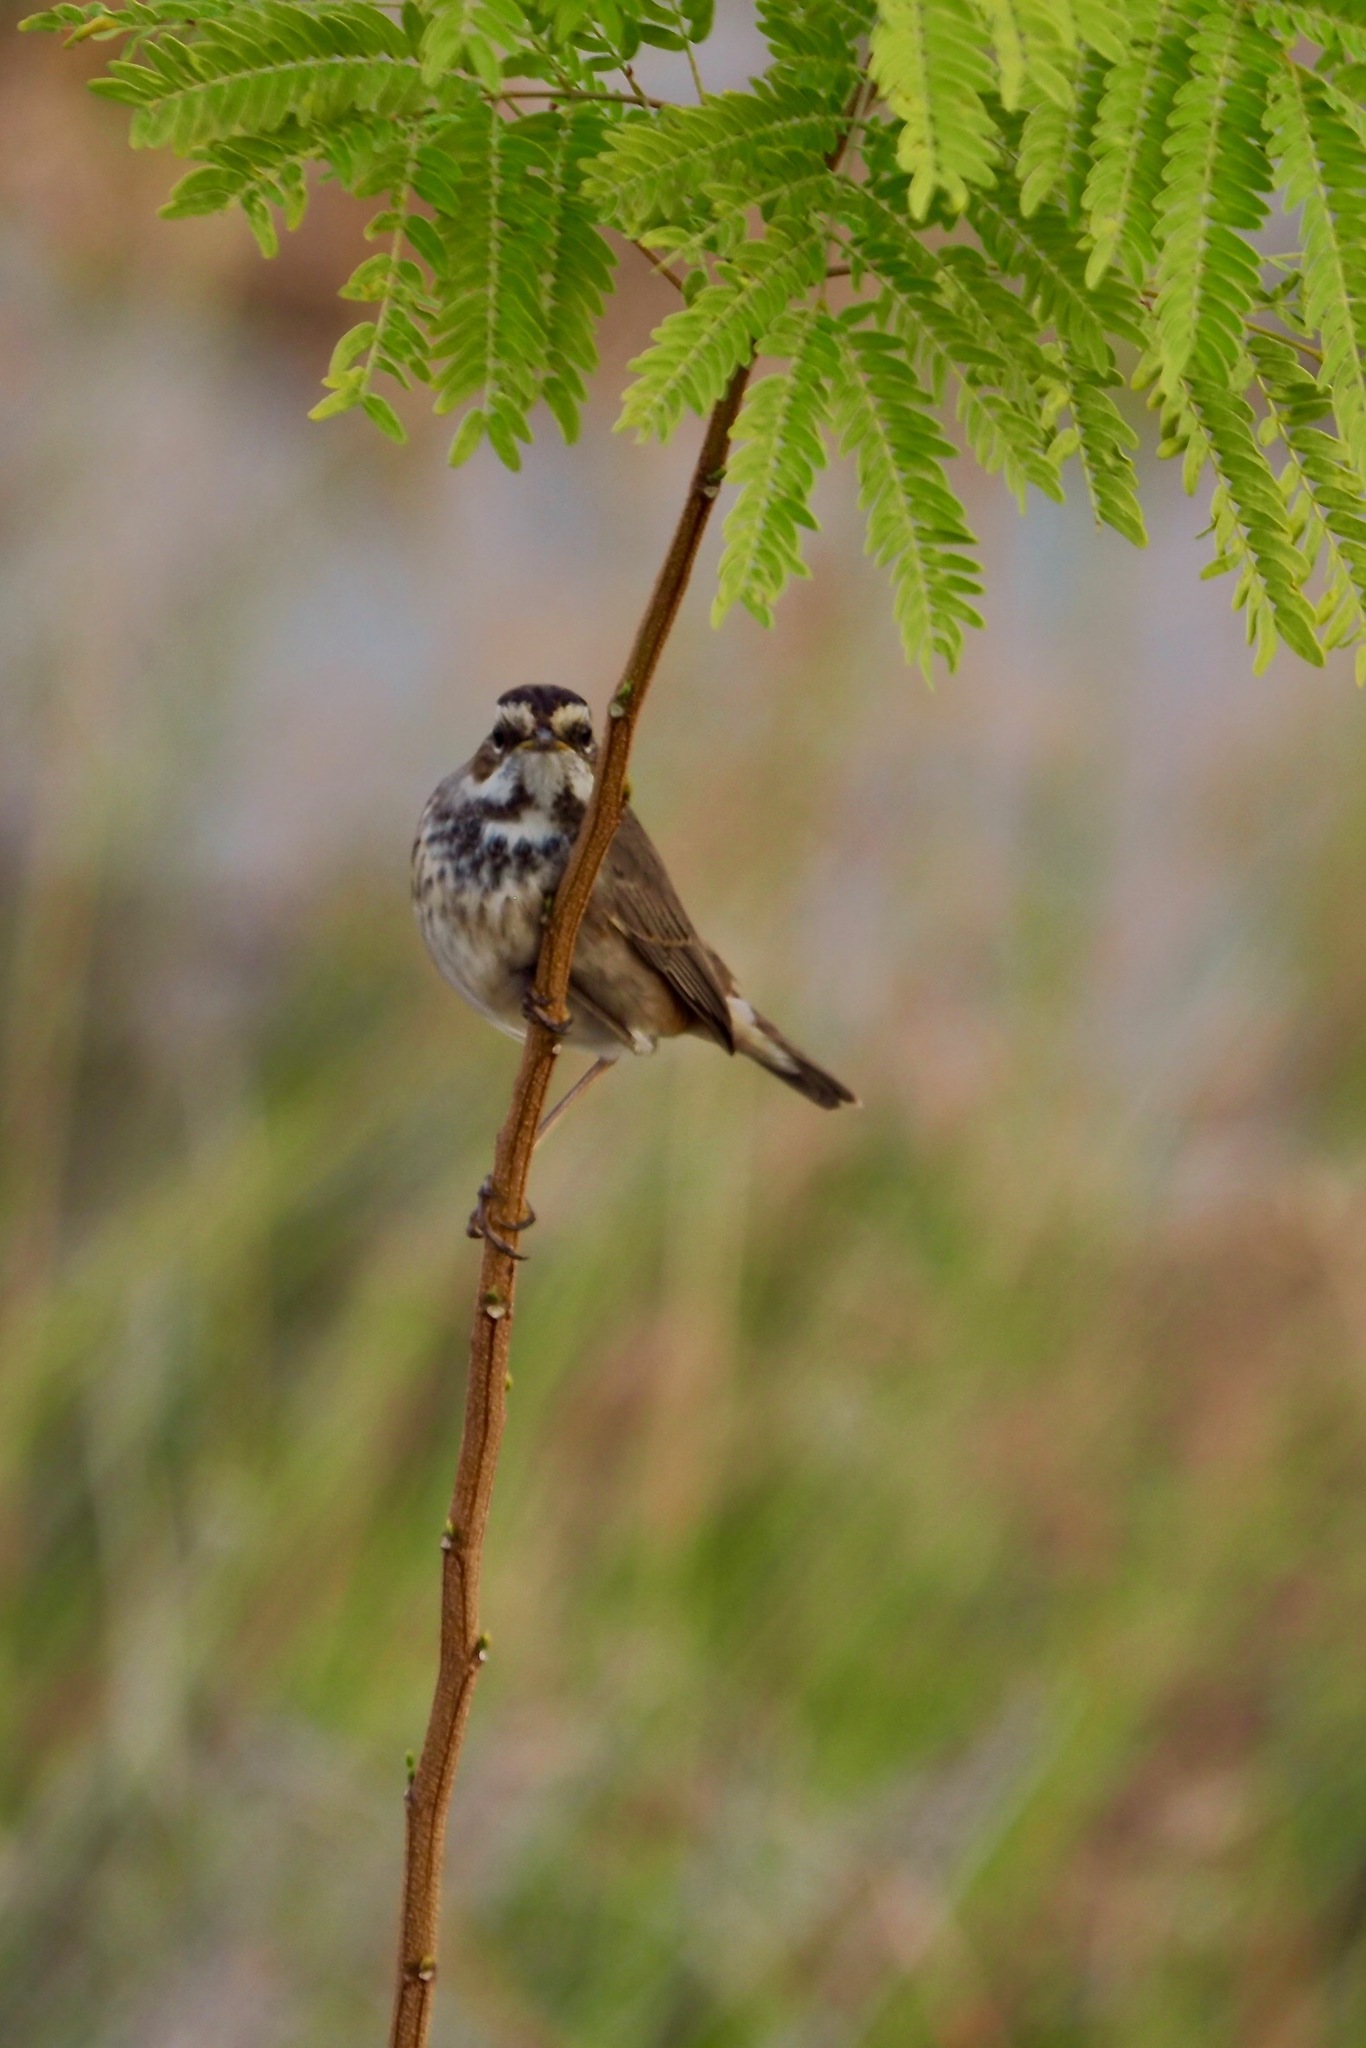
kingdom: Animalia
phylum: Chordata
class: Aves
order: Passeriformes
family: Muscicapidae
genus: Luscinia
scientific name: Luscinia svecica
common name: Bluethroat
